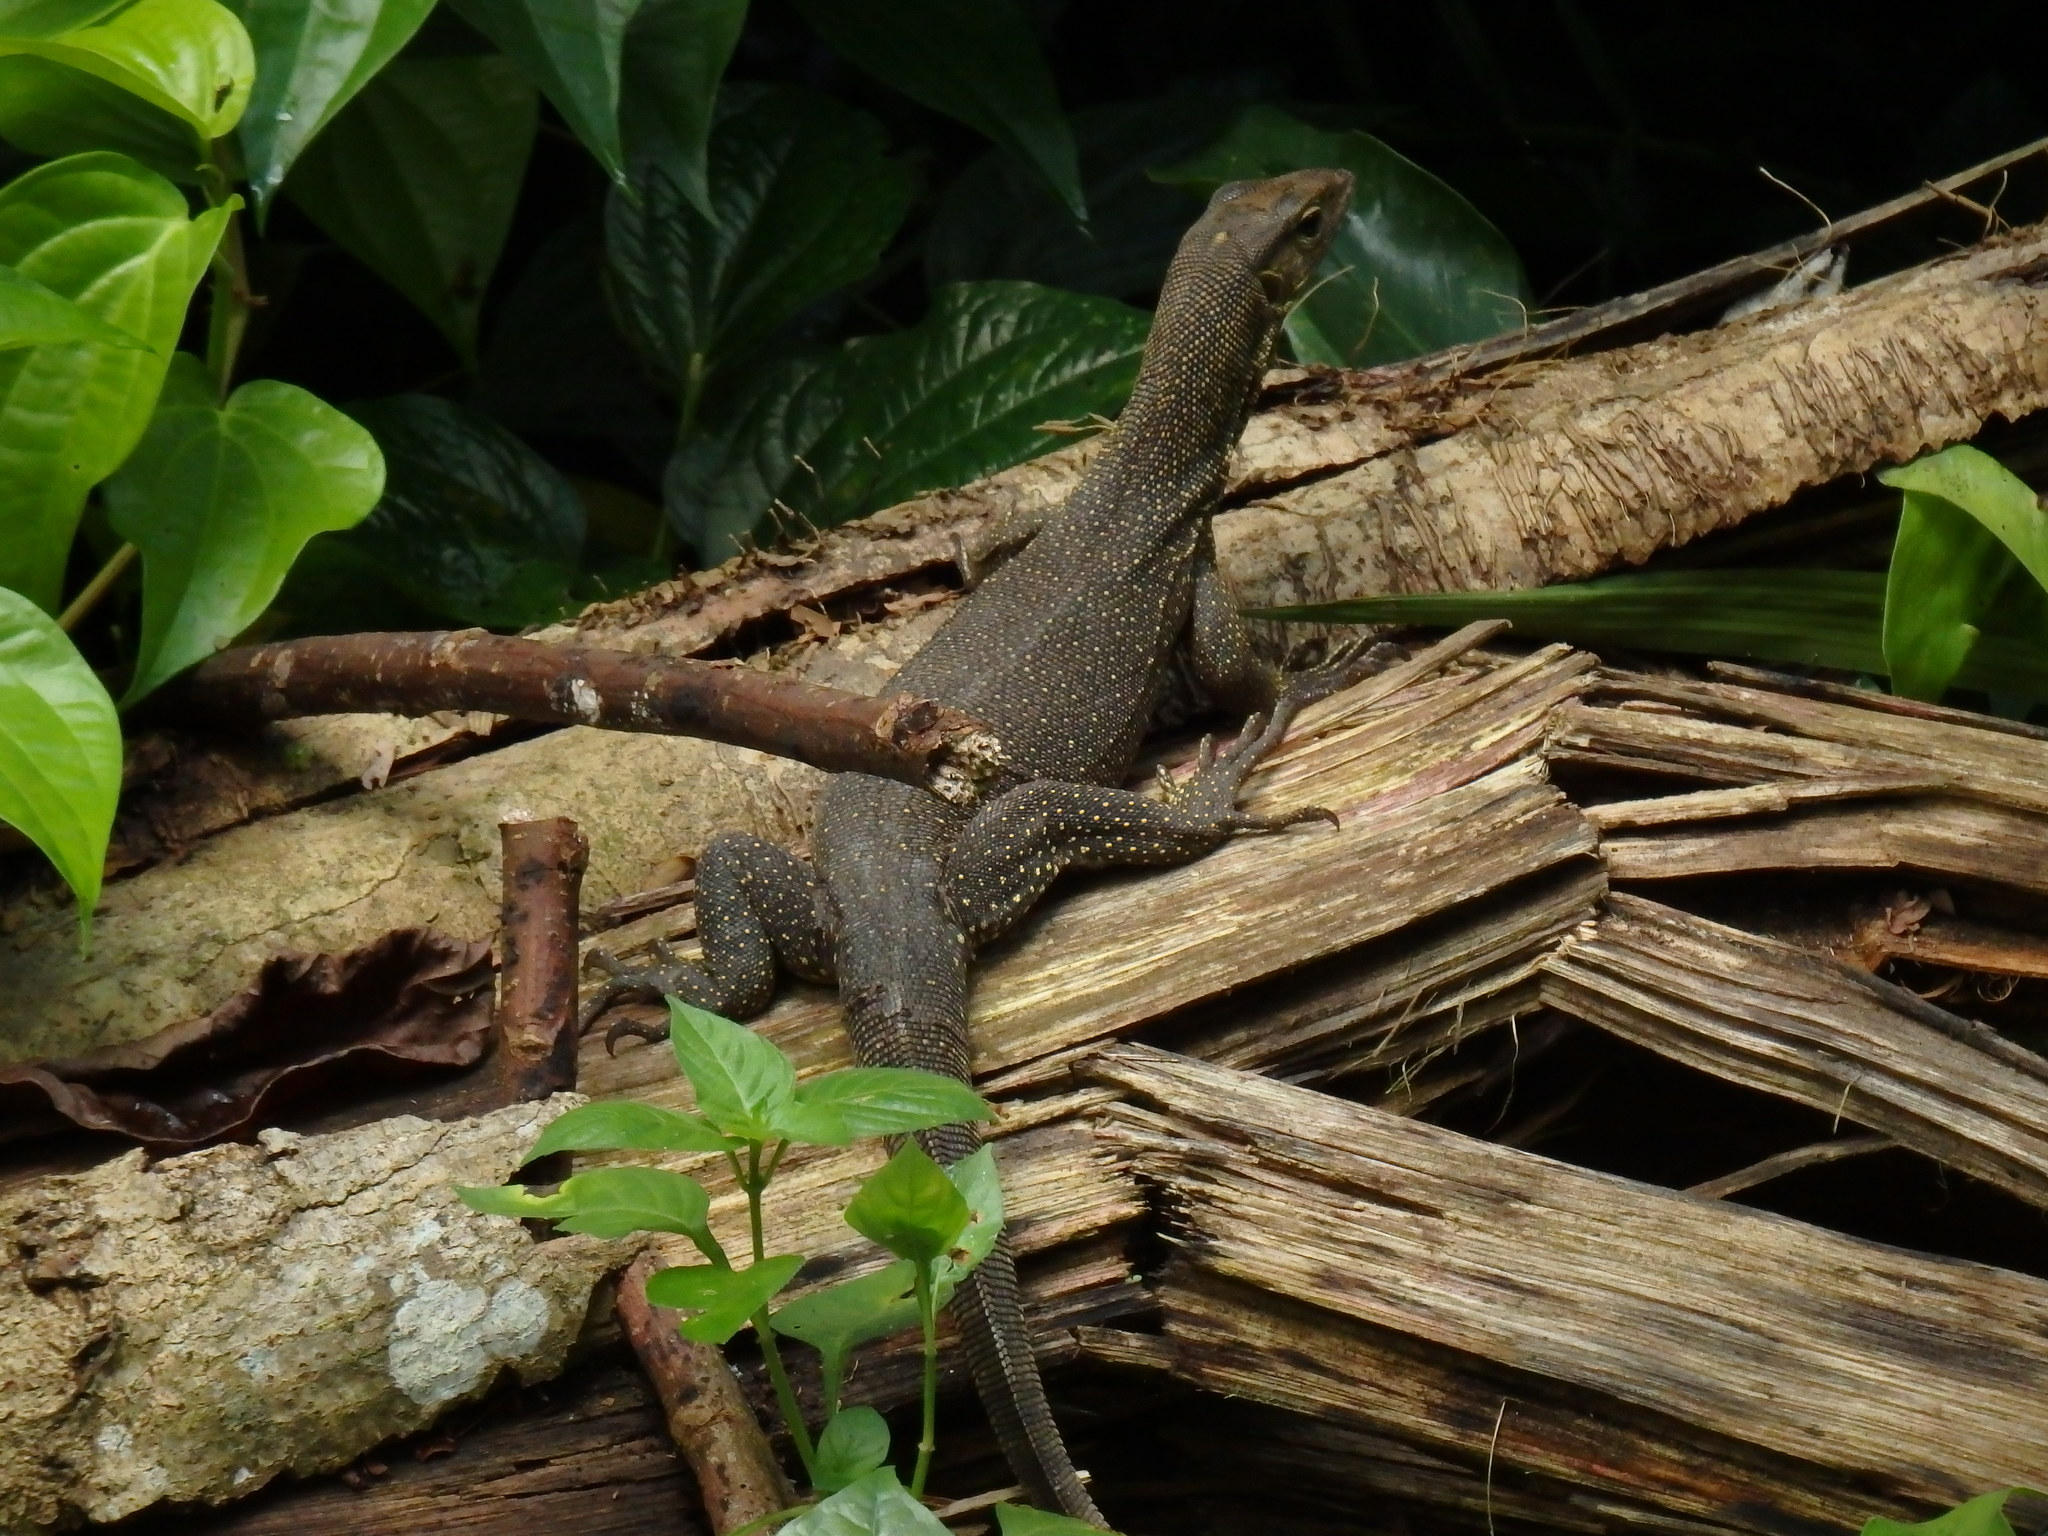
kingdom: Animalia
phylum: Chordata
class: Squamata
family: Varanidae
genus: Varanus
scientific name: Varanus nebulosus
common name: Clouded monitor
